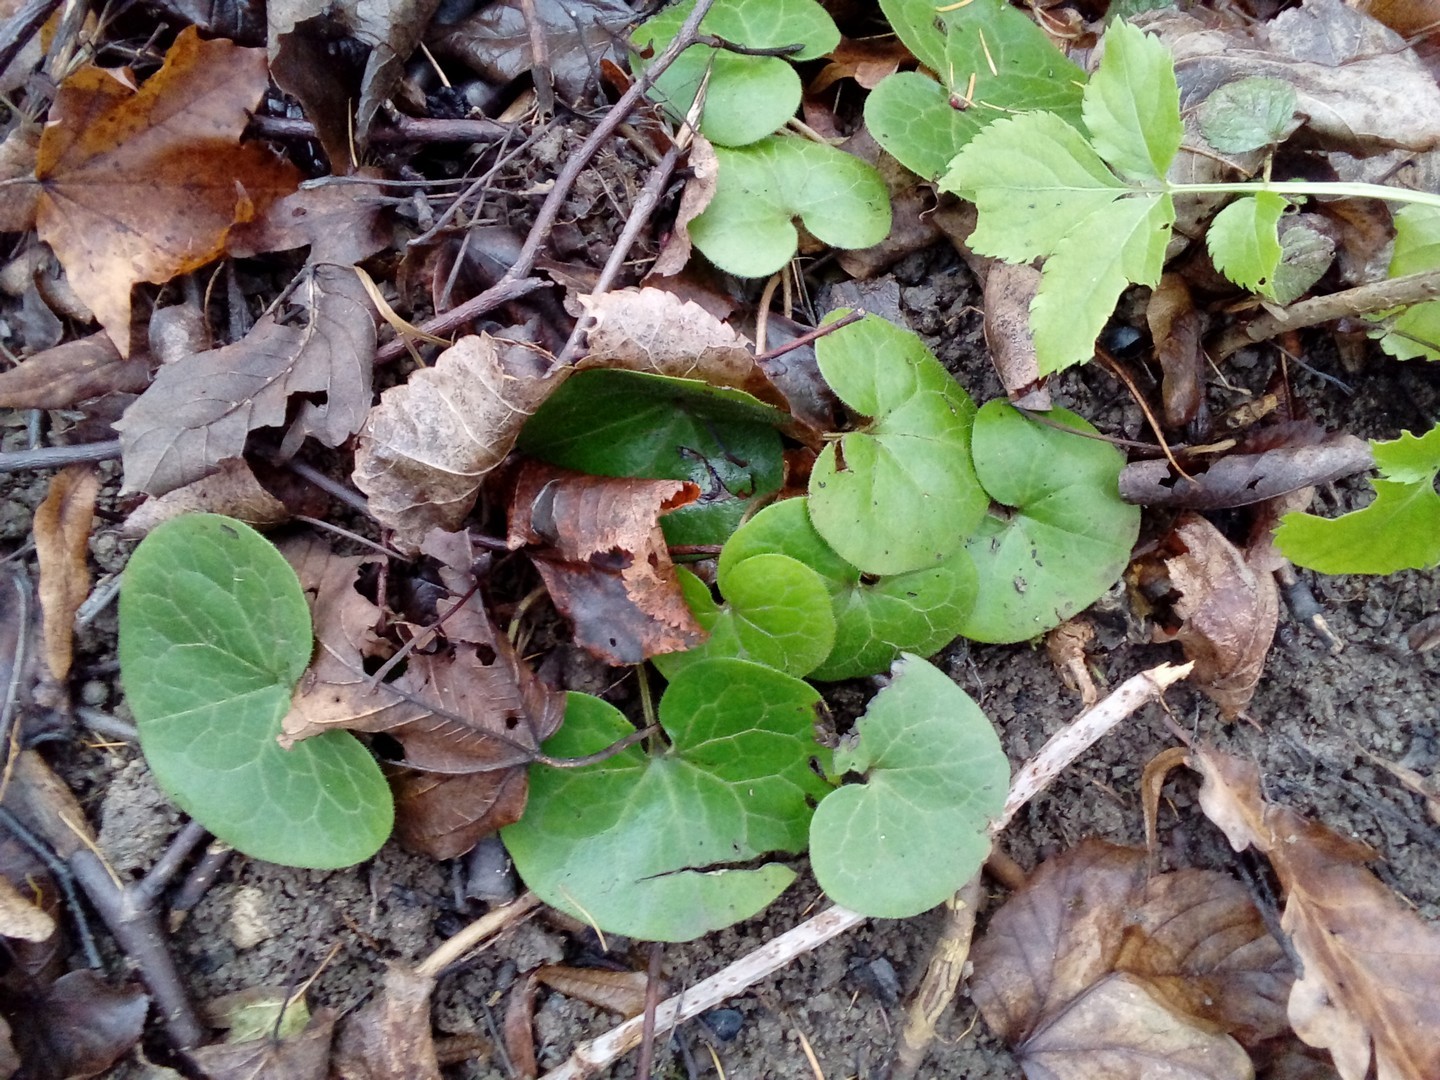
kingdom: Plantae
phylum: Tracheophyta
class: Magnoliopsida
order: Piperales
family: Aristolochiaceae
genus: Asarum
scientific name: Asarum europaeum
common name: Asarabacca
